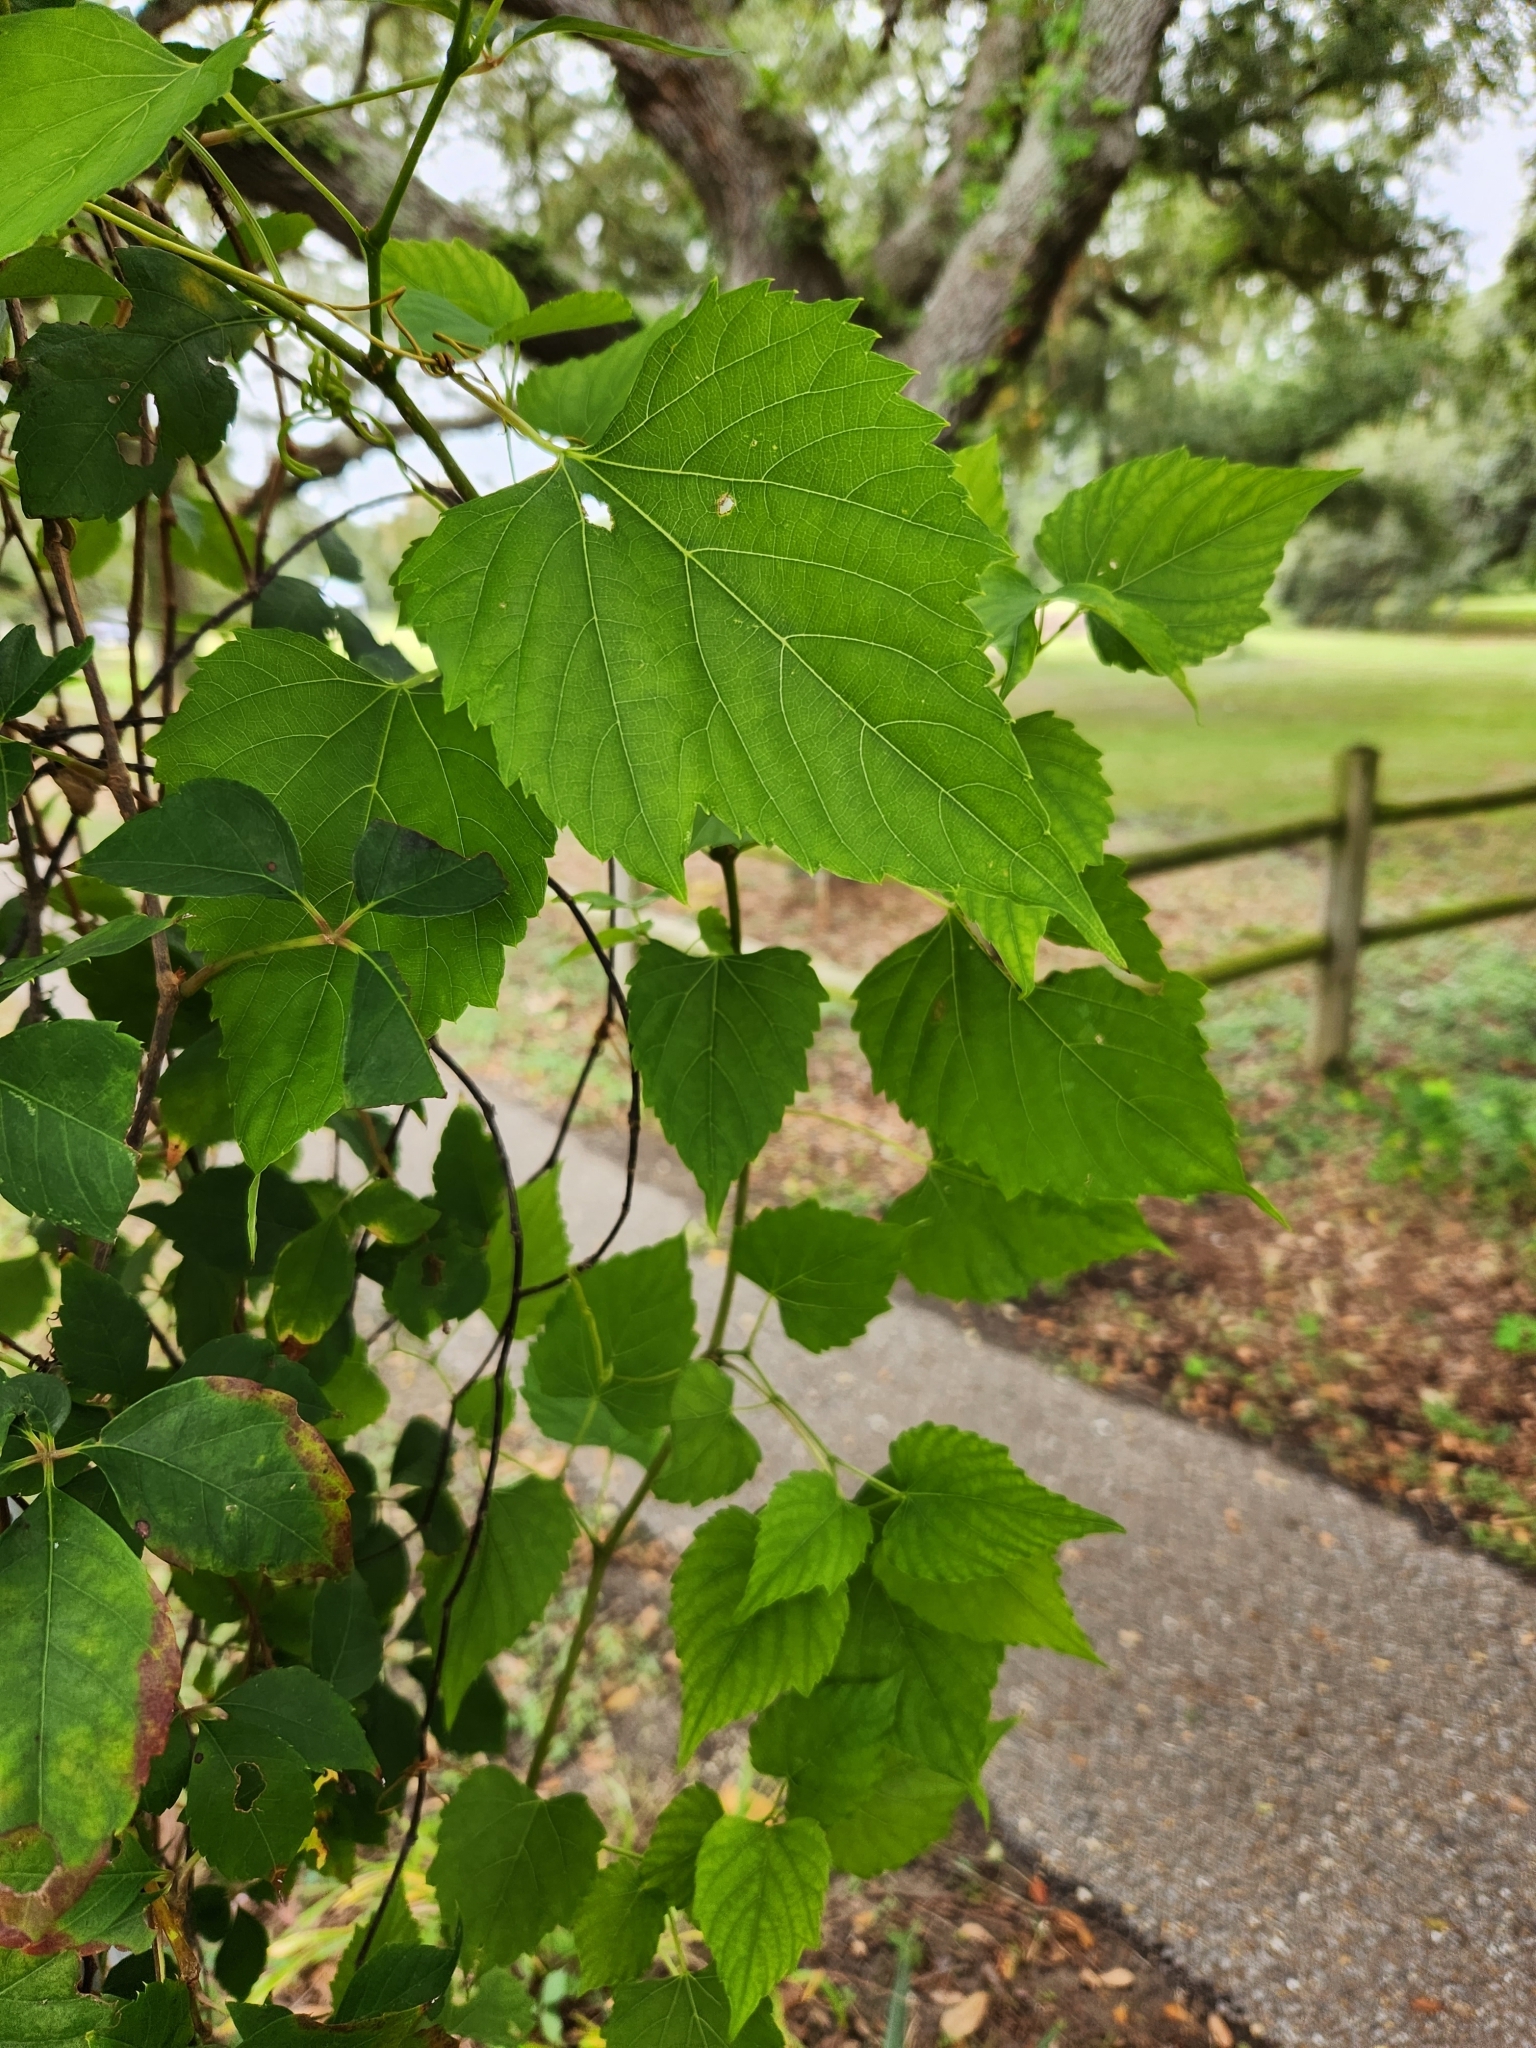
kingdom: Plantae
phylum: Tracheophyta
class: Magnoliopsida
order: Vitales
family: Vitaceae
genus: Ampelopsis
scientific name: Ampelopsis cordata
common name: Heart-leaf ampelopsis
